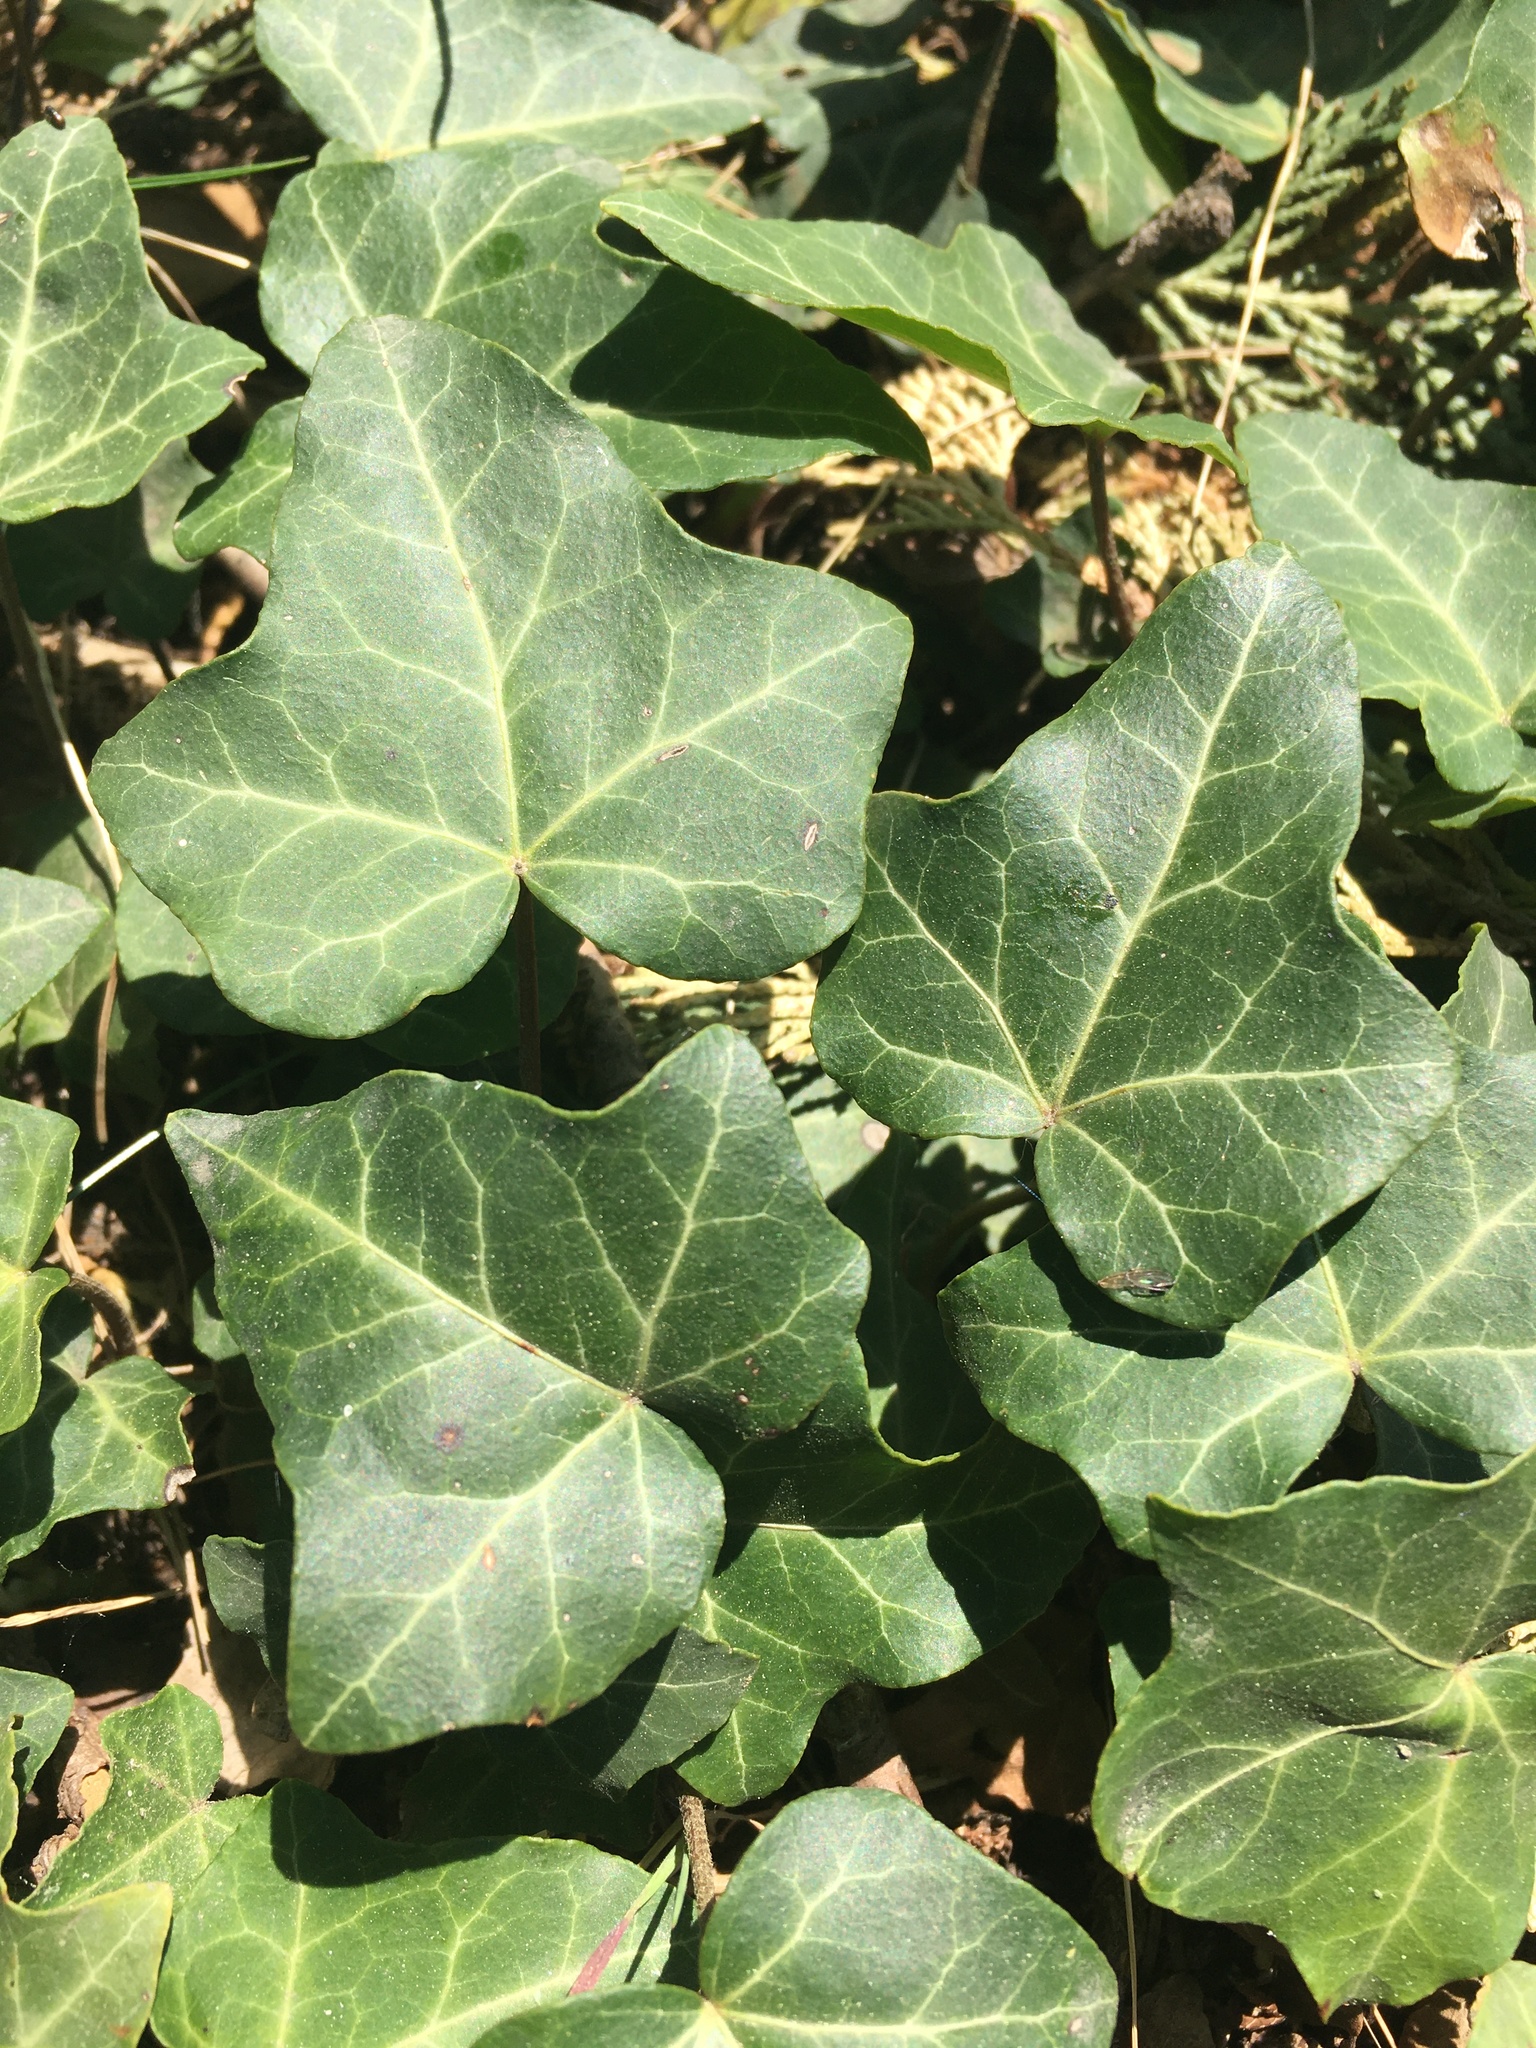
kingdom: Plantae
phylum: Tracheophyta
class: Magnoliopsida
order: Apiales
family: Araliaceae
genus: Hedera
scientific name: Hedera helix
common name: Ivy
